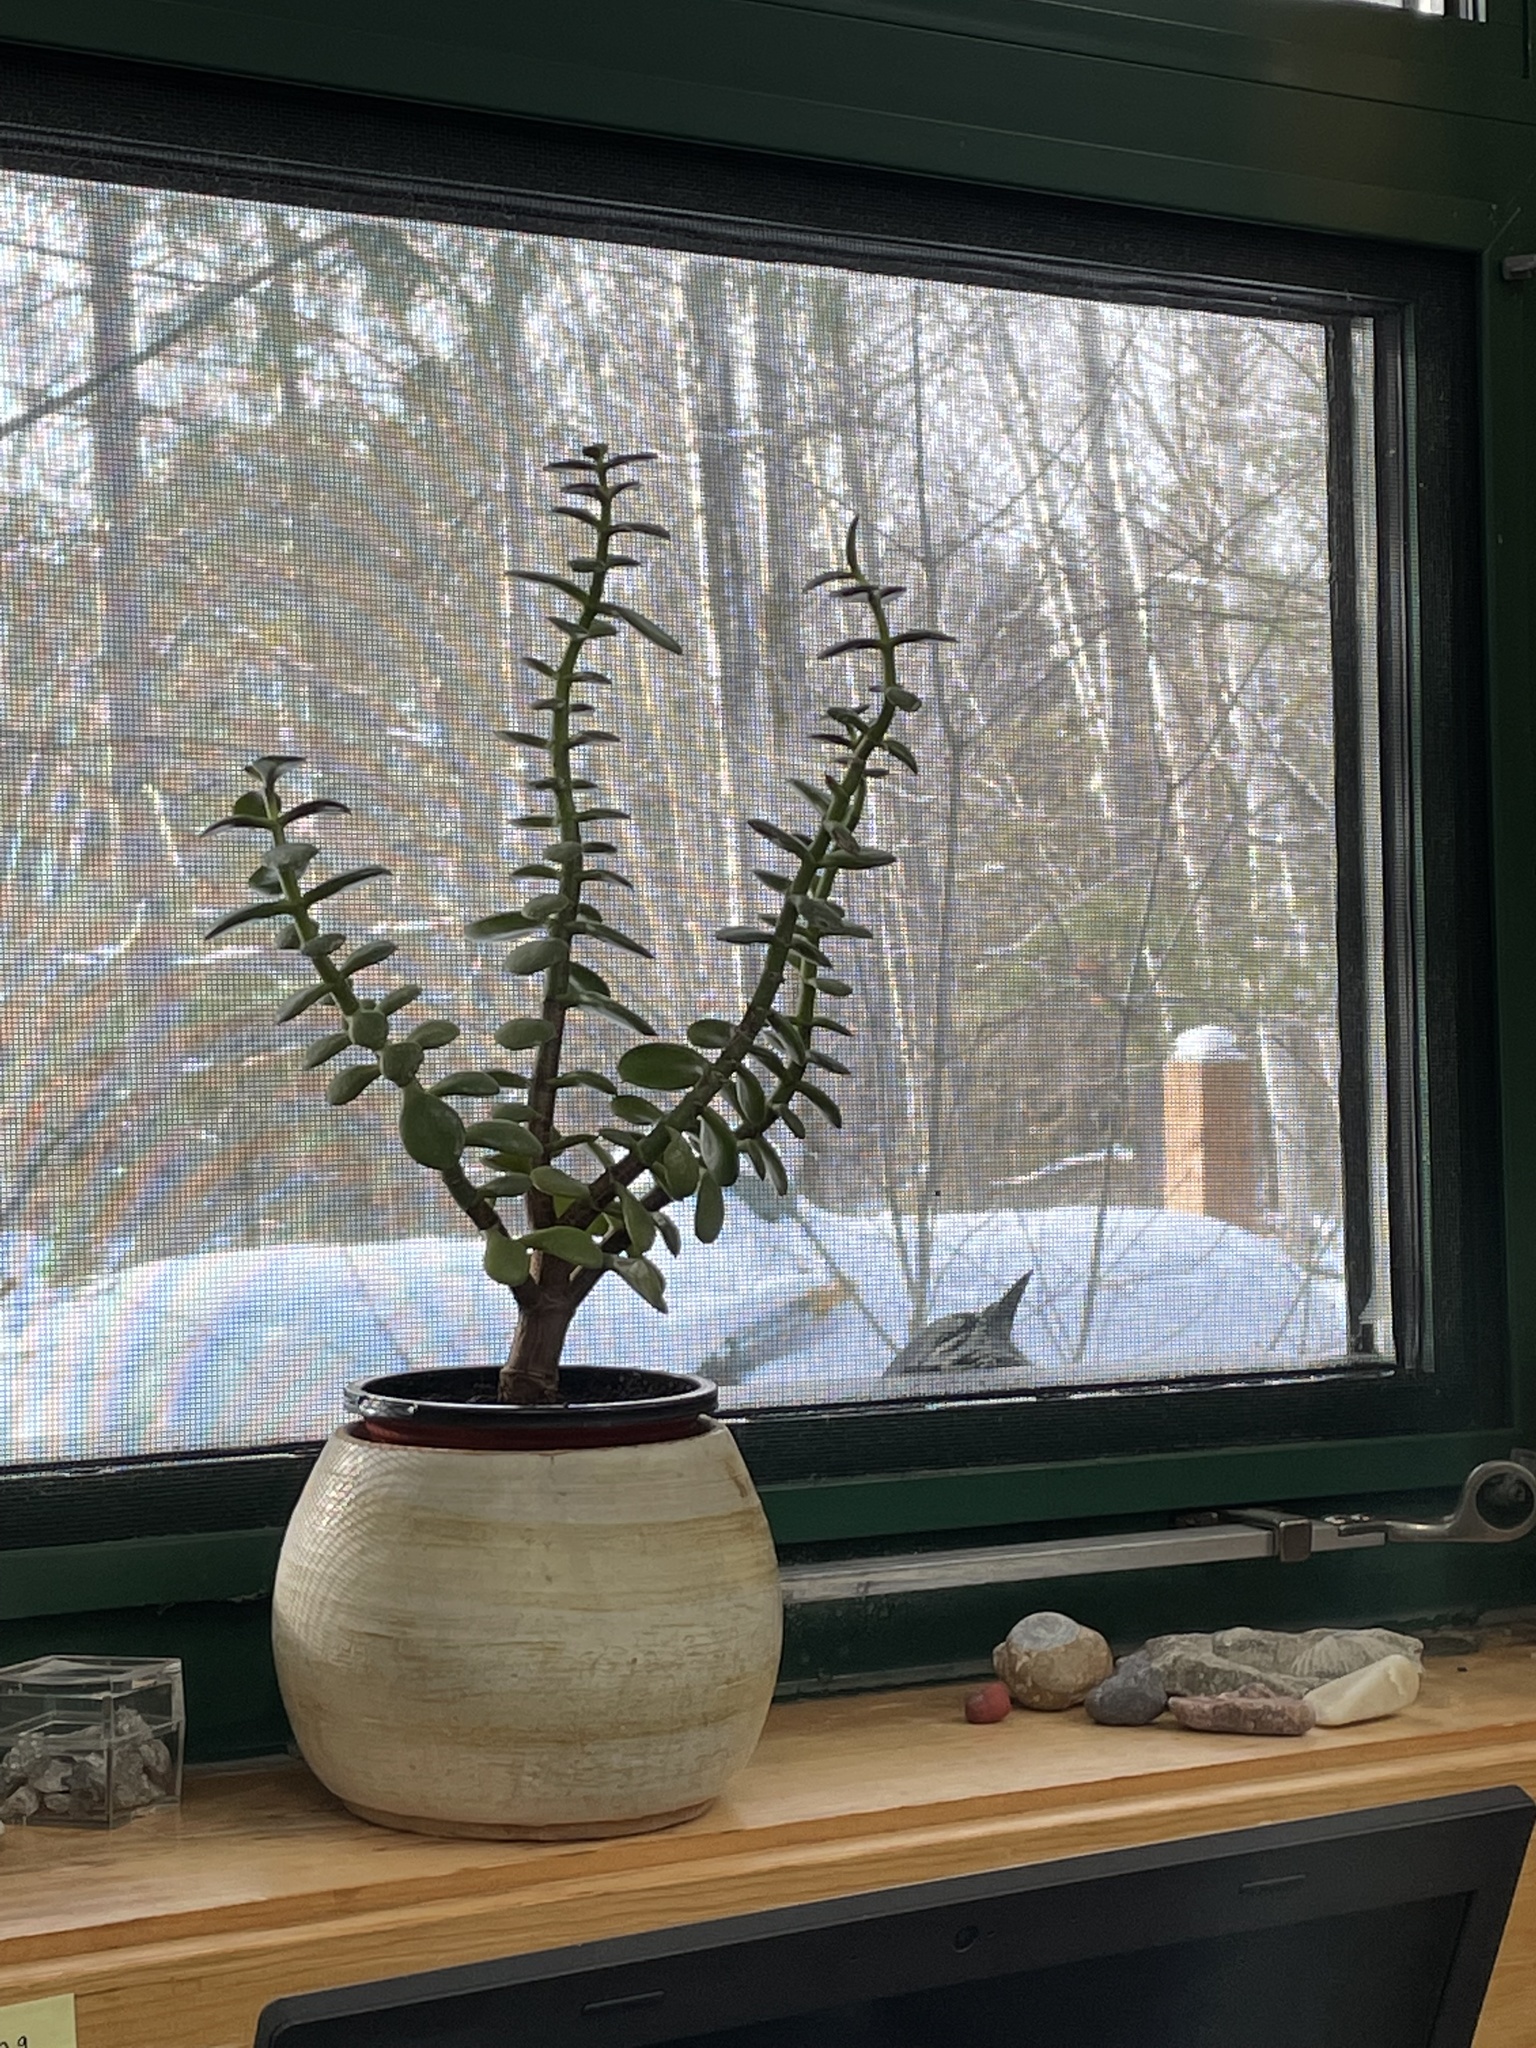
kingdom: Animalia
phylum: Chordata
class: Aves
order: Passeriformes
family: Corvidae
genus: Cyanocitta
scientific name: Cyanocitta cristata
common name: Blue jay
